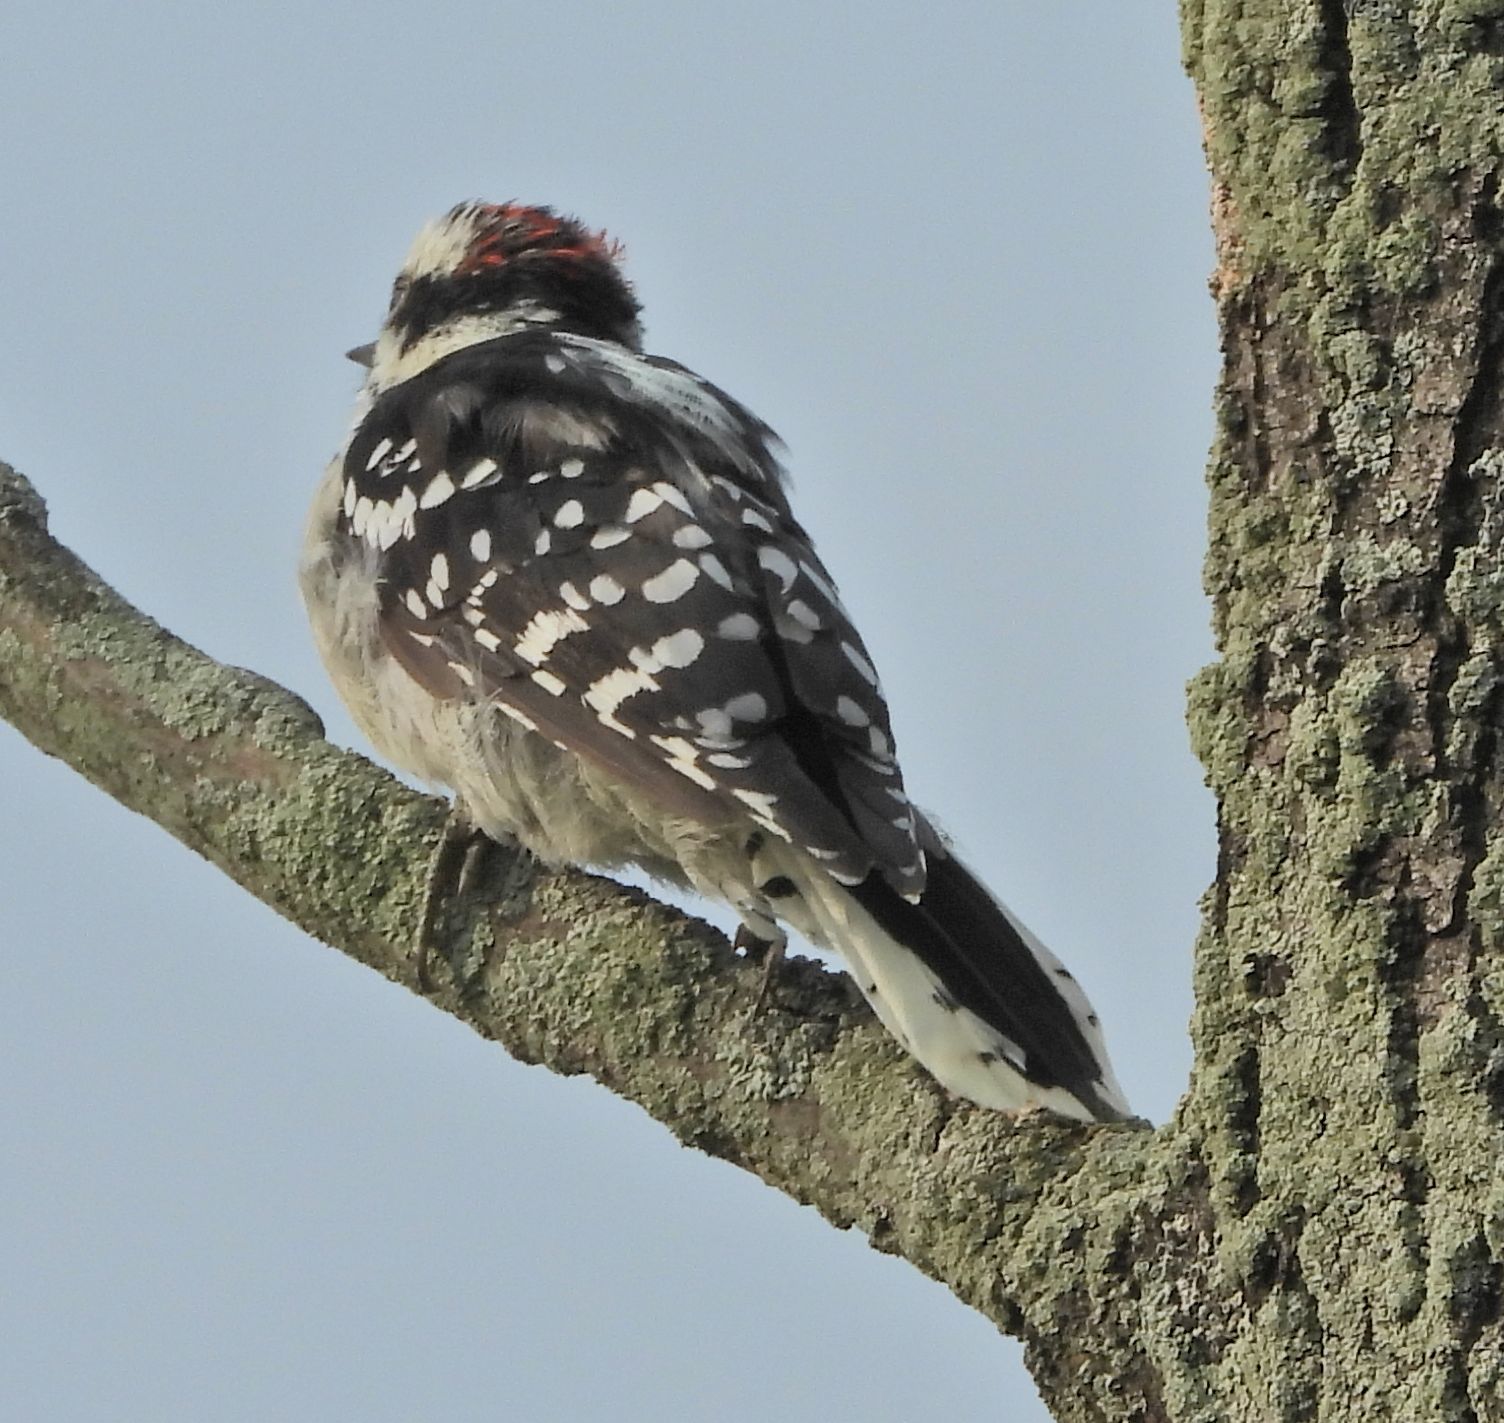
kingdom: Animalia
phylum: Chordata
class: Aves
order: Piciformes
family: Picidae
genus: Dryobates
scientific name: Dryobates pubescens
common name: Downy woodpecker
